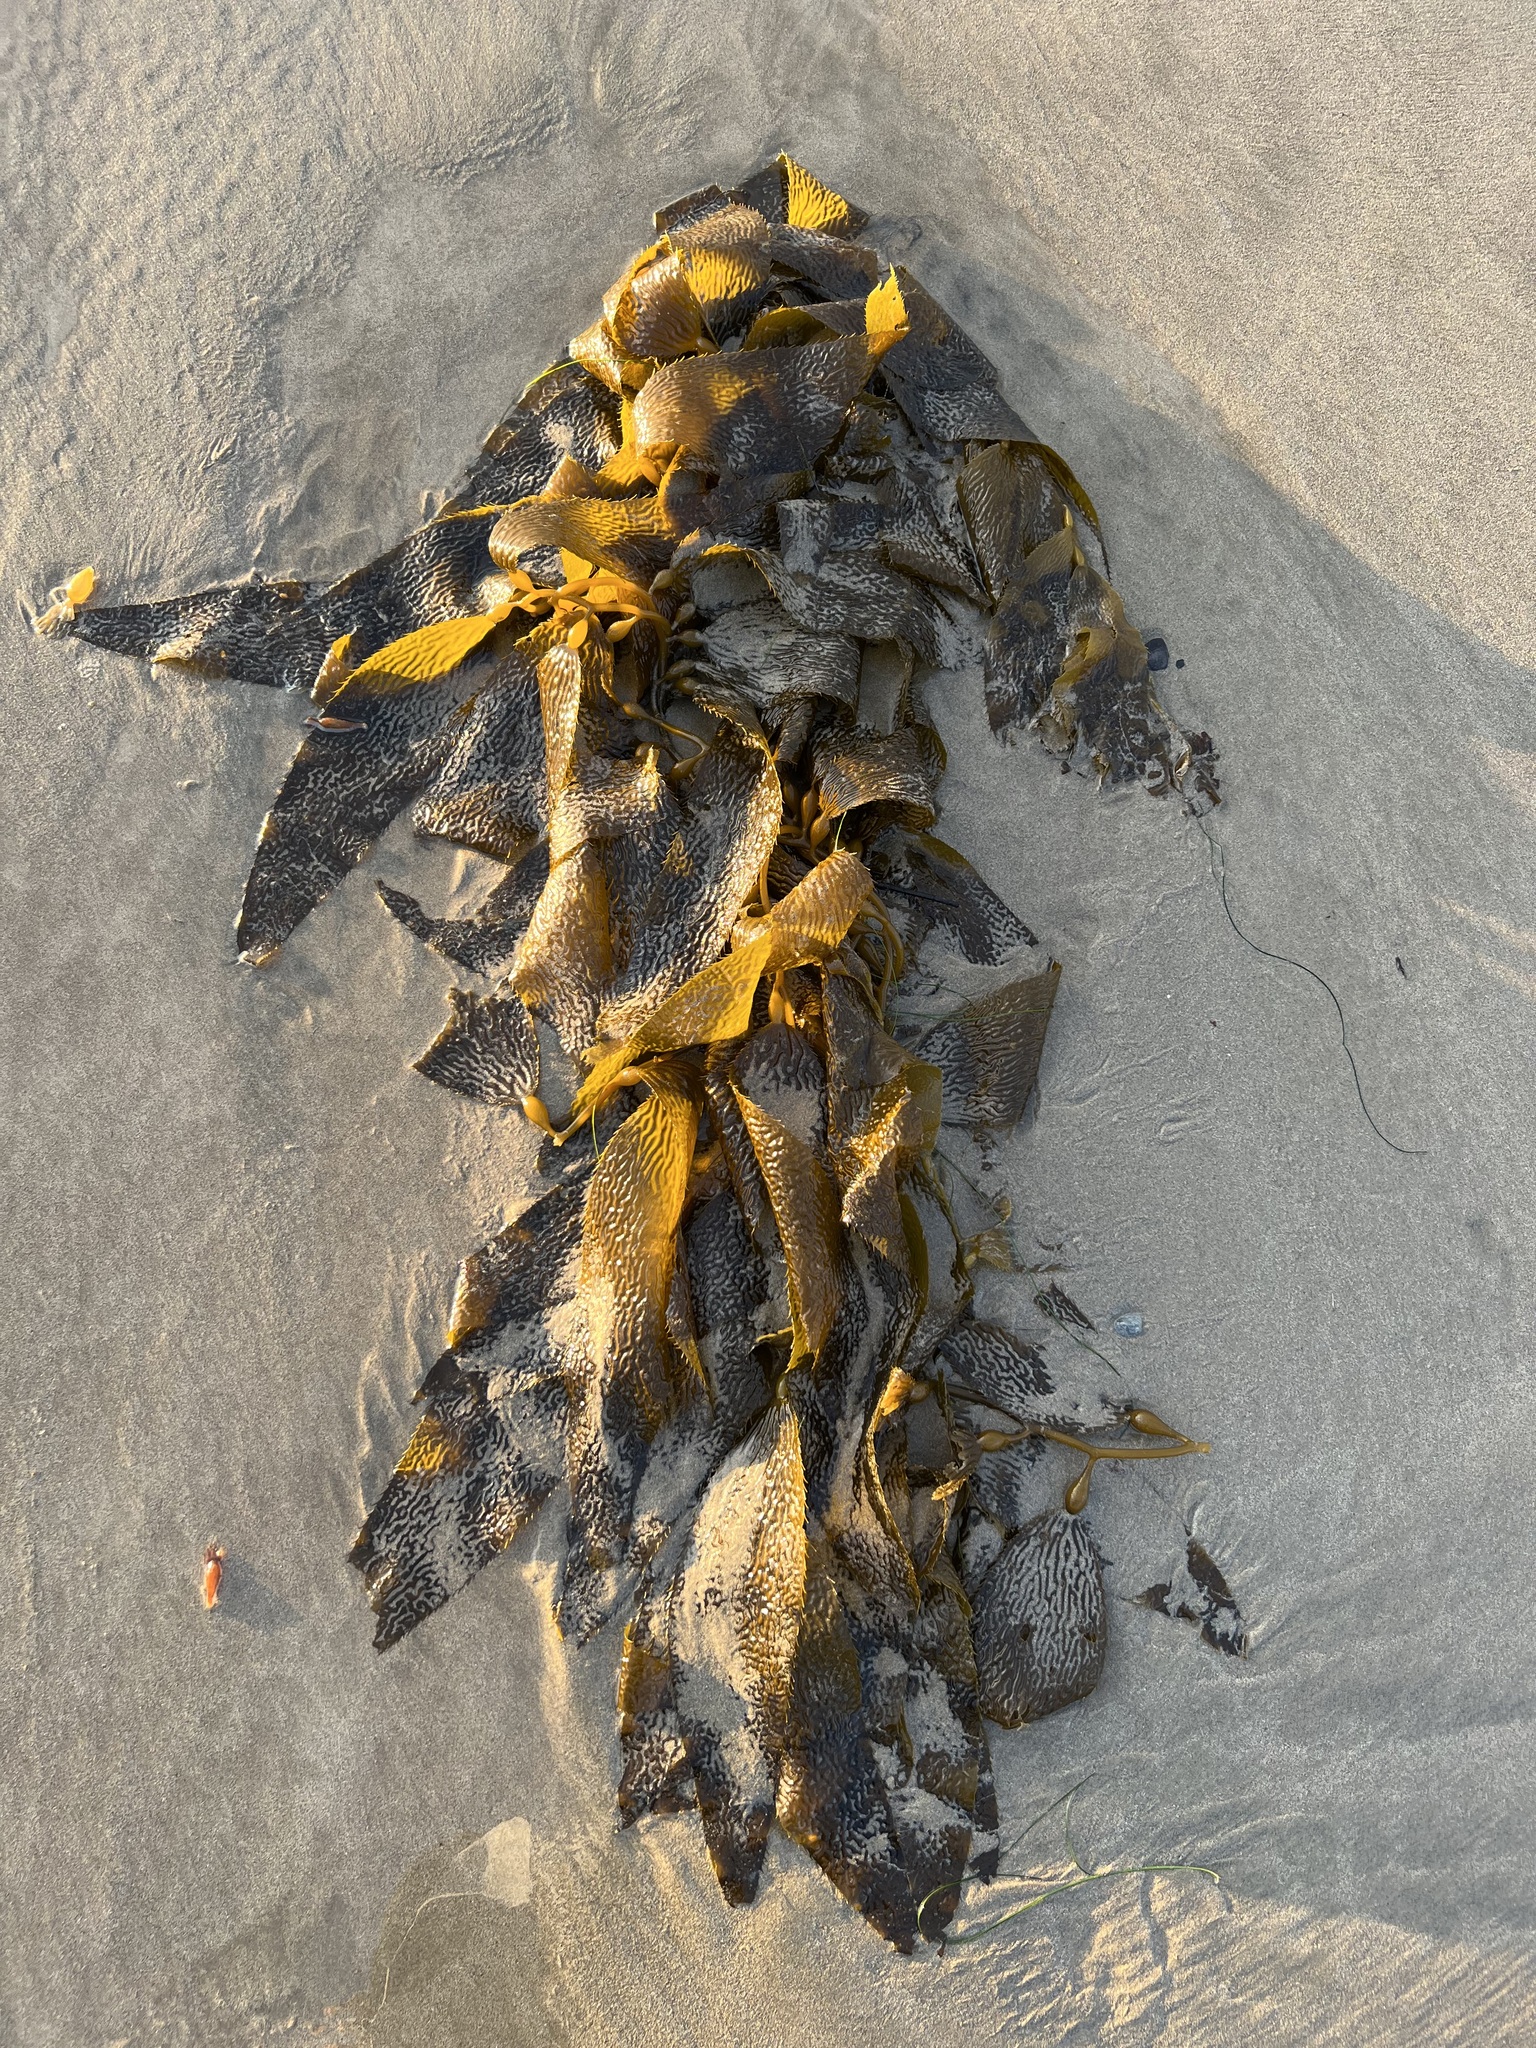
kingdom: Chromista
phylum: Ochrophyta
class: Phaeophyceae
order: Laminariales
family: Laminariaceae
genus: Macrocystis
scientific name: Macrocystis pyrifera
